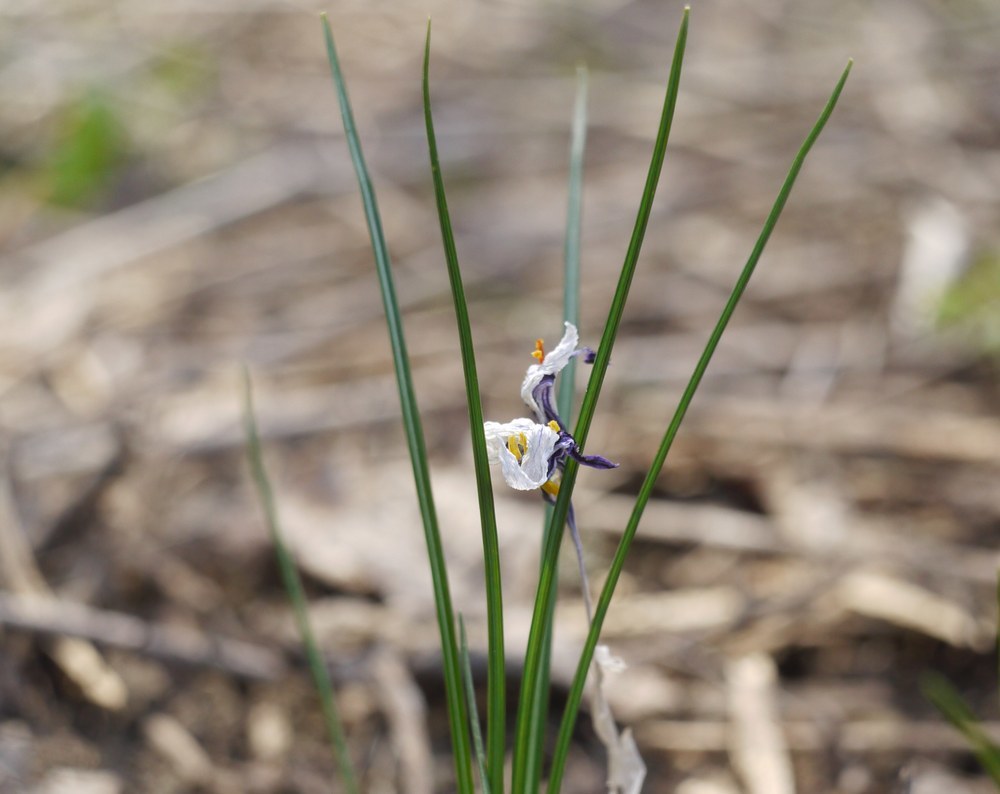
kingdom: Plantae
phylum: Tracheophyta
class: Liliopsida
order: Asparagales
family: Iridaceae
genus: Crocus
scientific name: Crocus reticulatus
